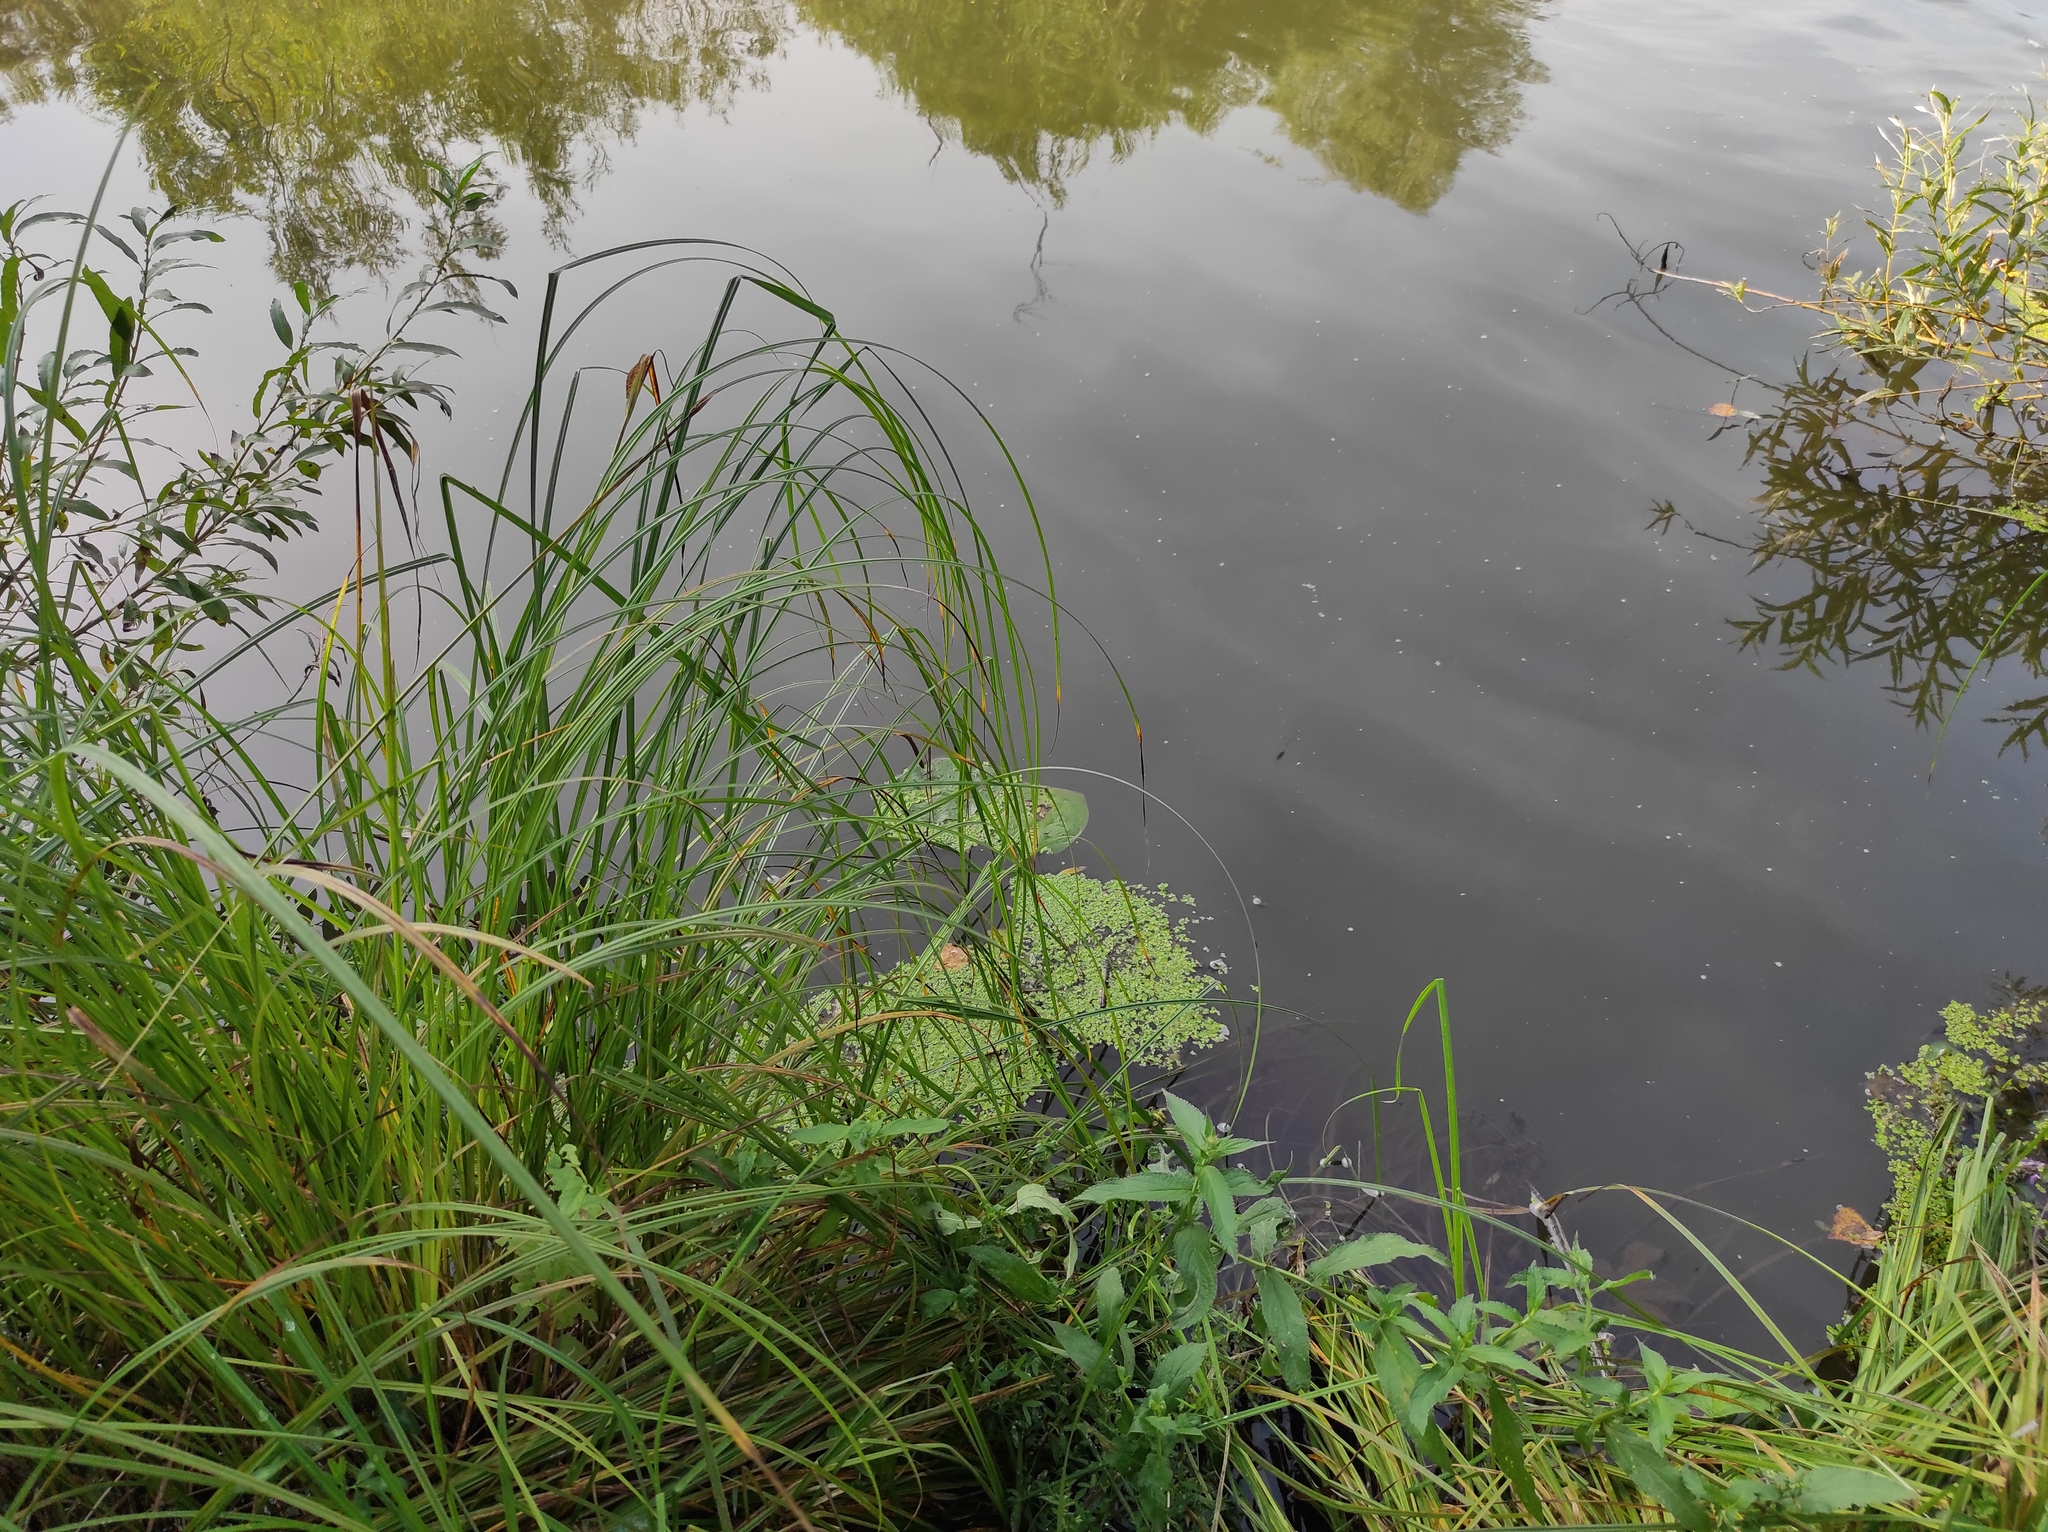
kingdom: Plantae
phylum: Tracheophyta
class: Liliopsida
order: Alismatales
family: Araceae
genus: Lemna
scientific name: Lemna minor
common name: Common duckweed
